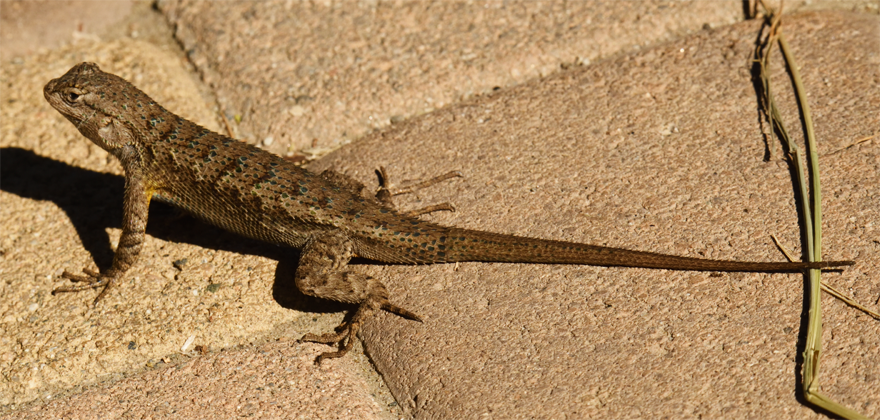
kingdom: Animalia
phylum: Chordata
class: Squamata
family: Phrynosomatidae
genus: Sceloporus
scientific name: Sceloporus occidentalis
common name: Western fence lizard
